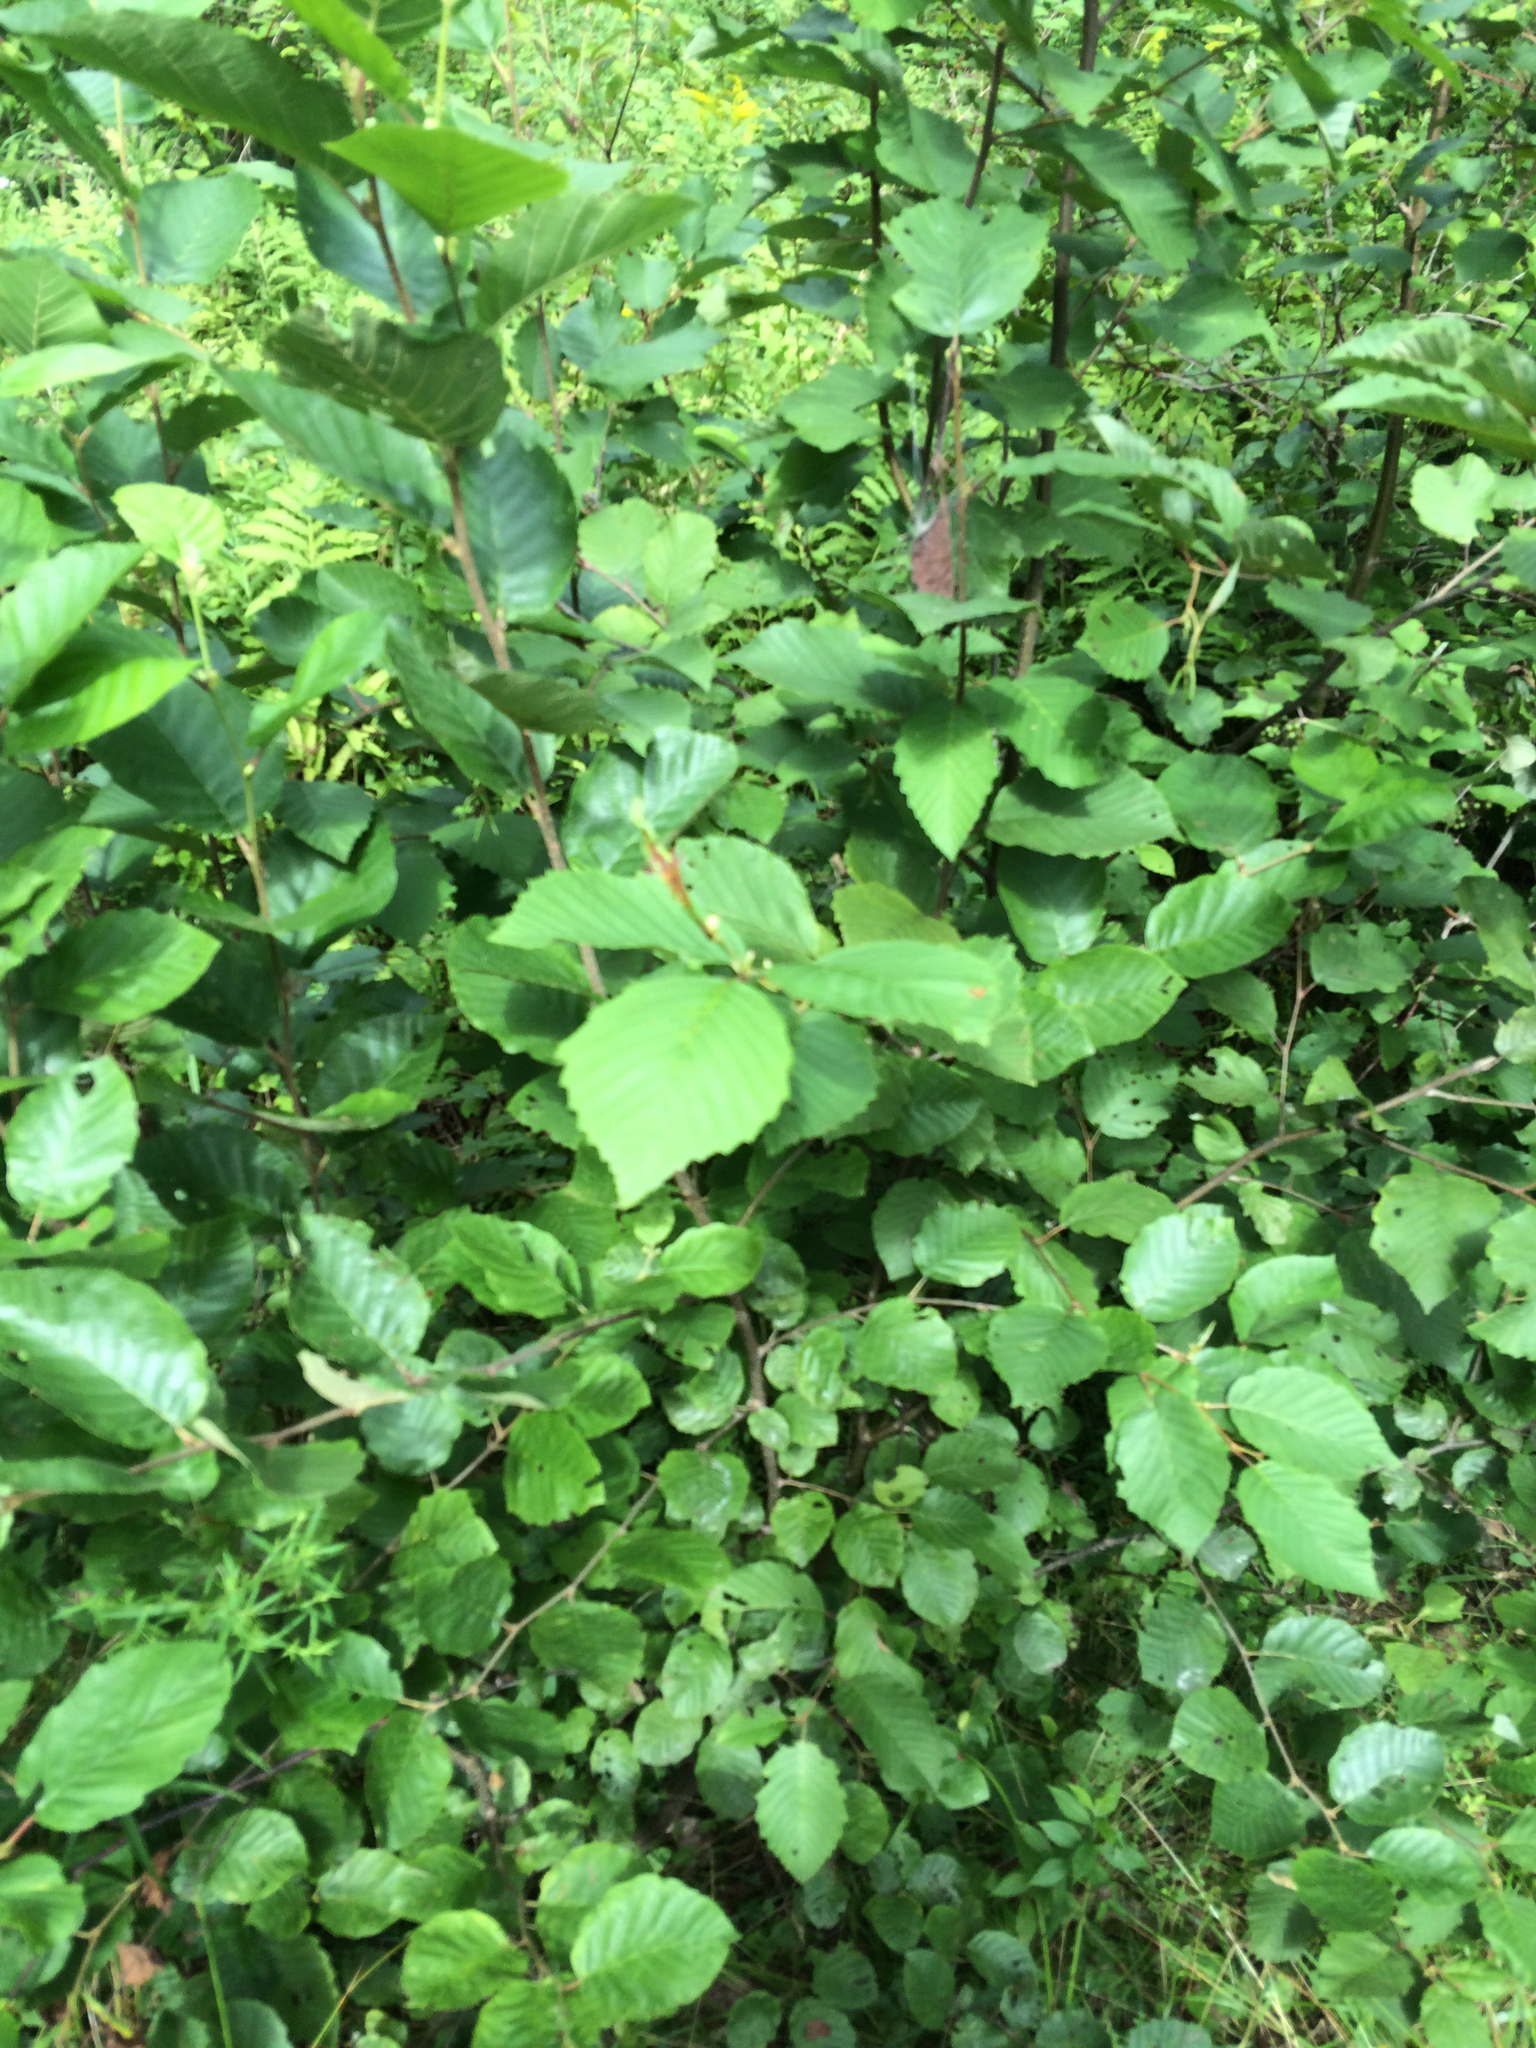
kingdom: Plantae
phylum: Tracheophyta
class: Magnoliopsida
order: Fagales
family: Betulaceae
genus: Alnus
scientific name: Alnus incana
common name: Grey alder
